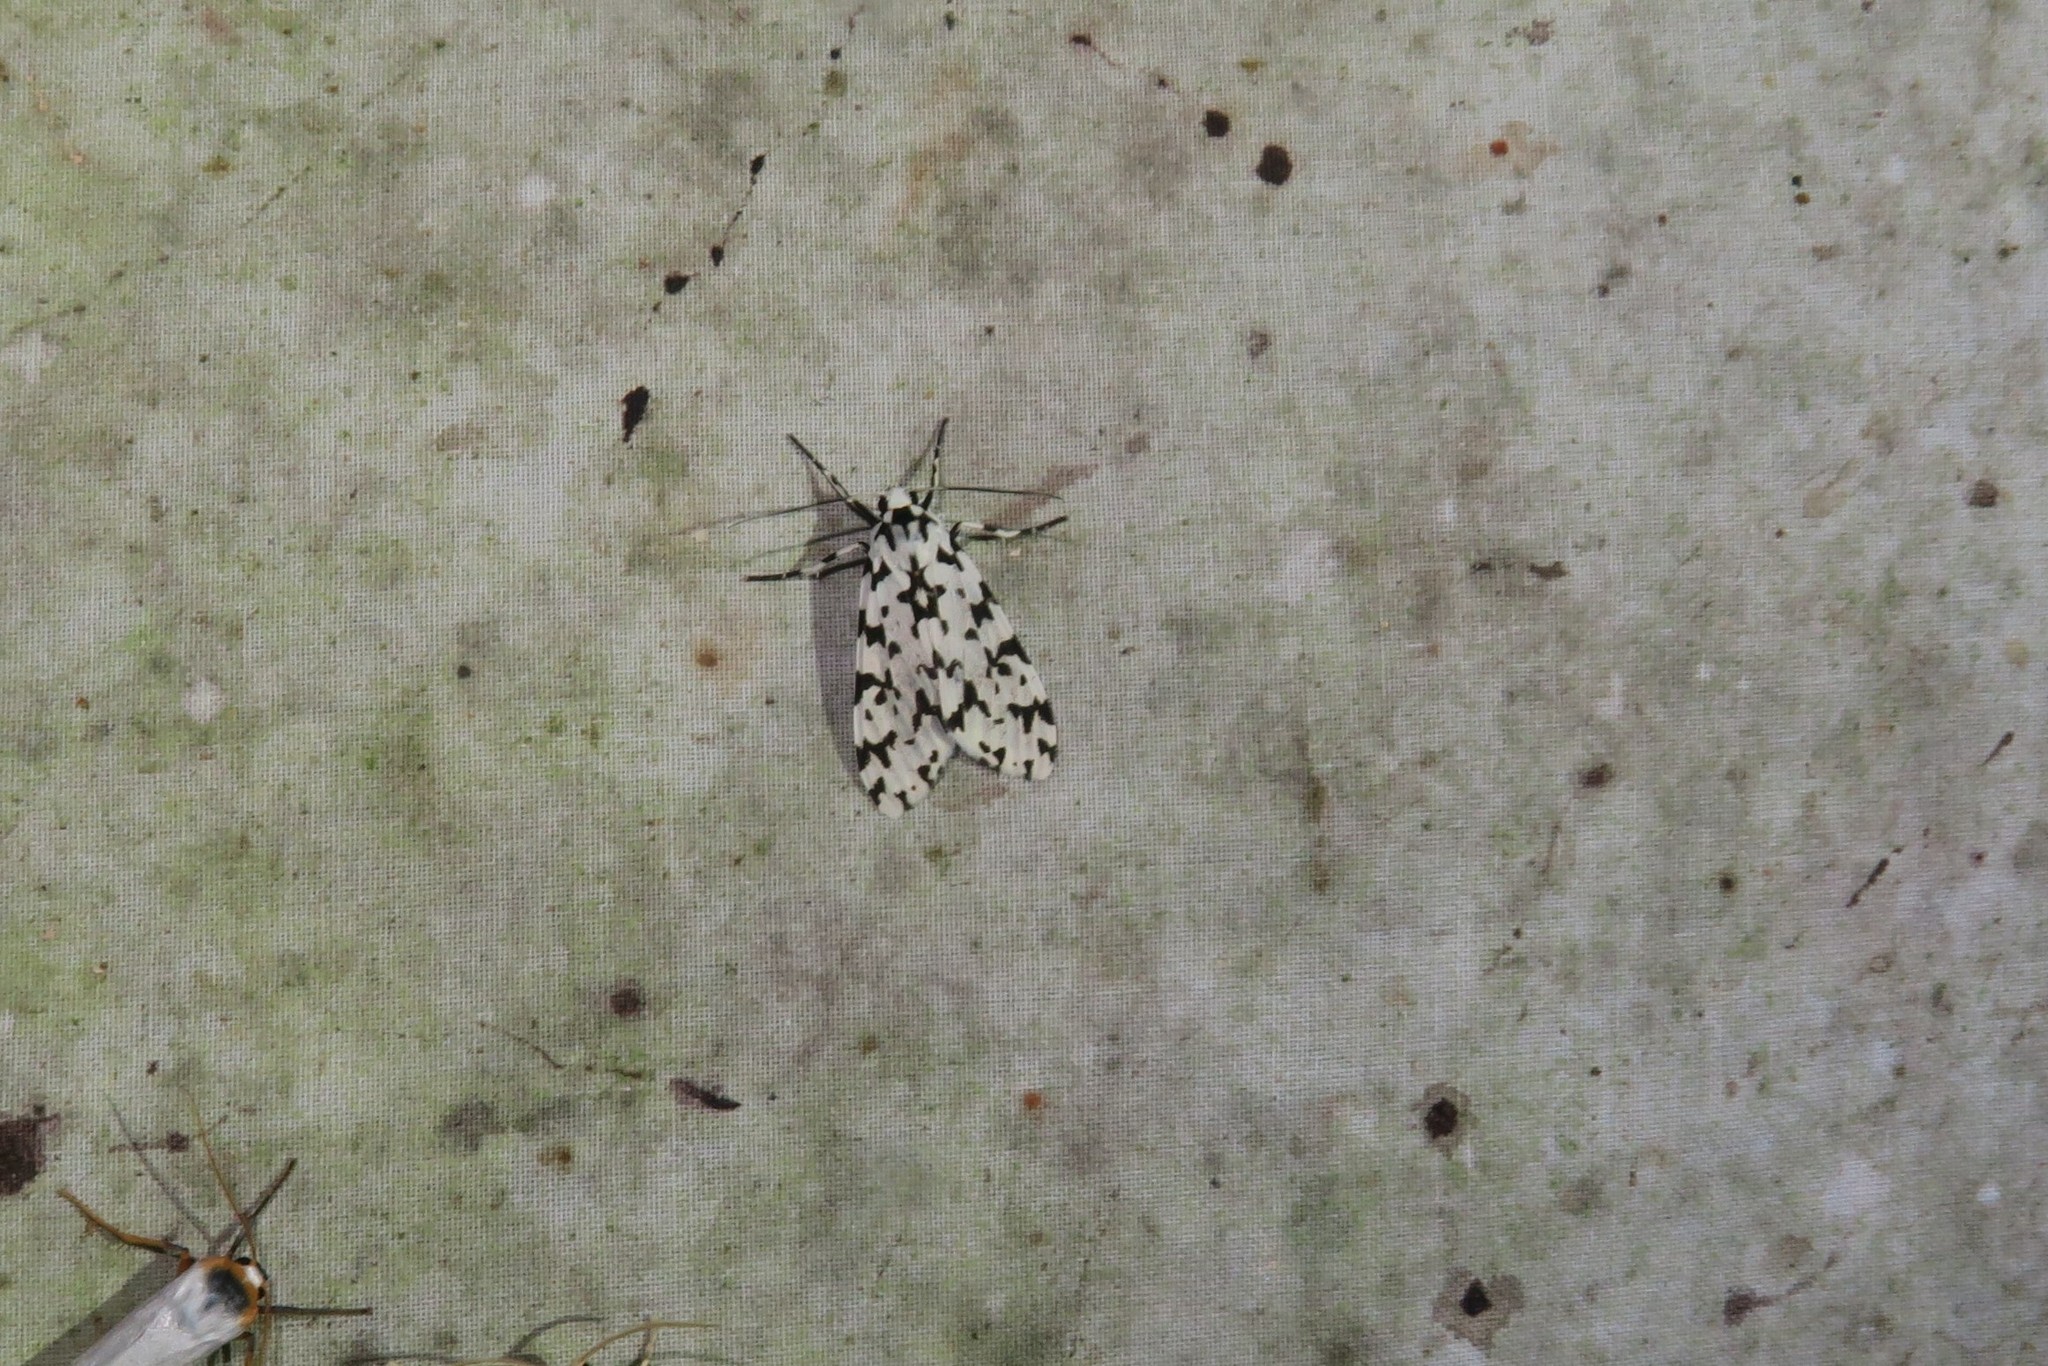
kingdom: Animalia
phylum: Arthropoda
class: Insecta
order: Lepidoptera
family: Erebidae
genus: Eucereon
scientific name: Eucereon tigrata
